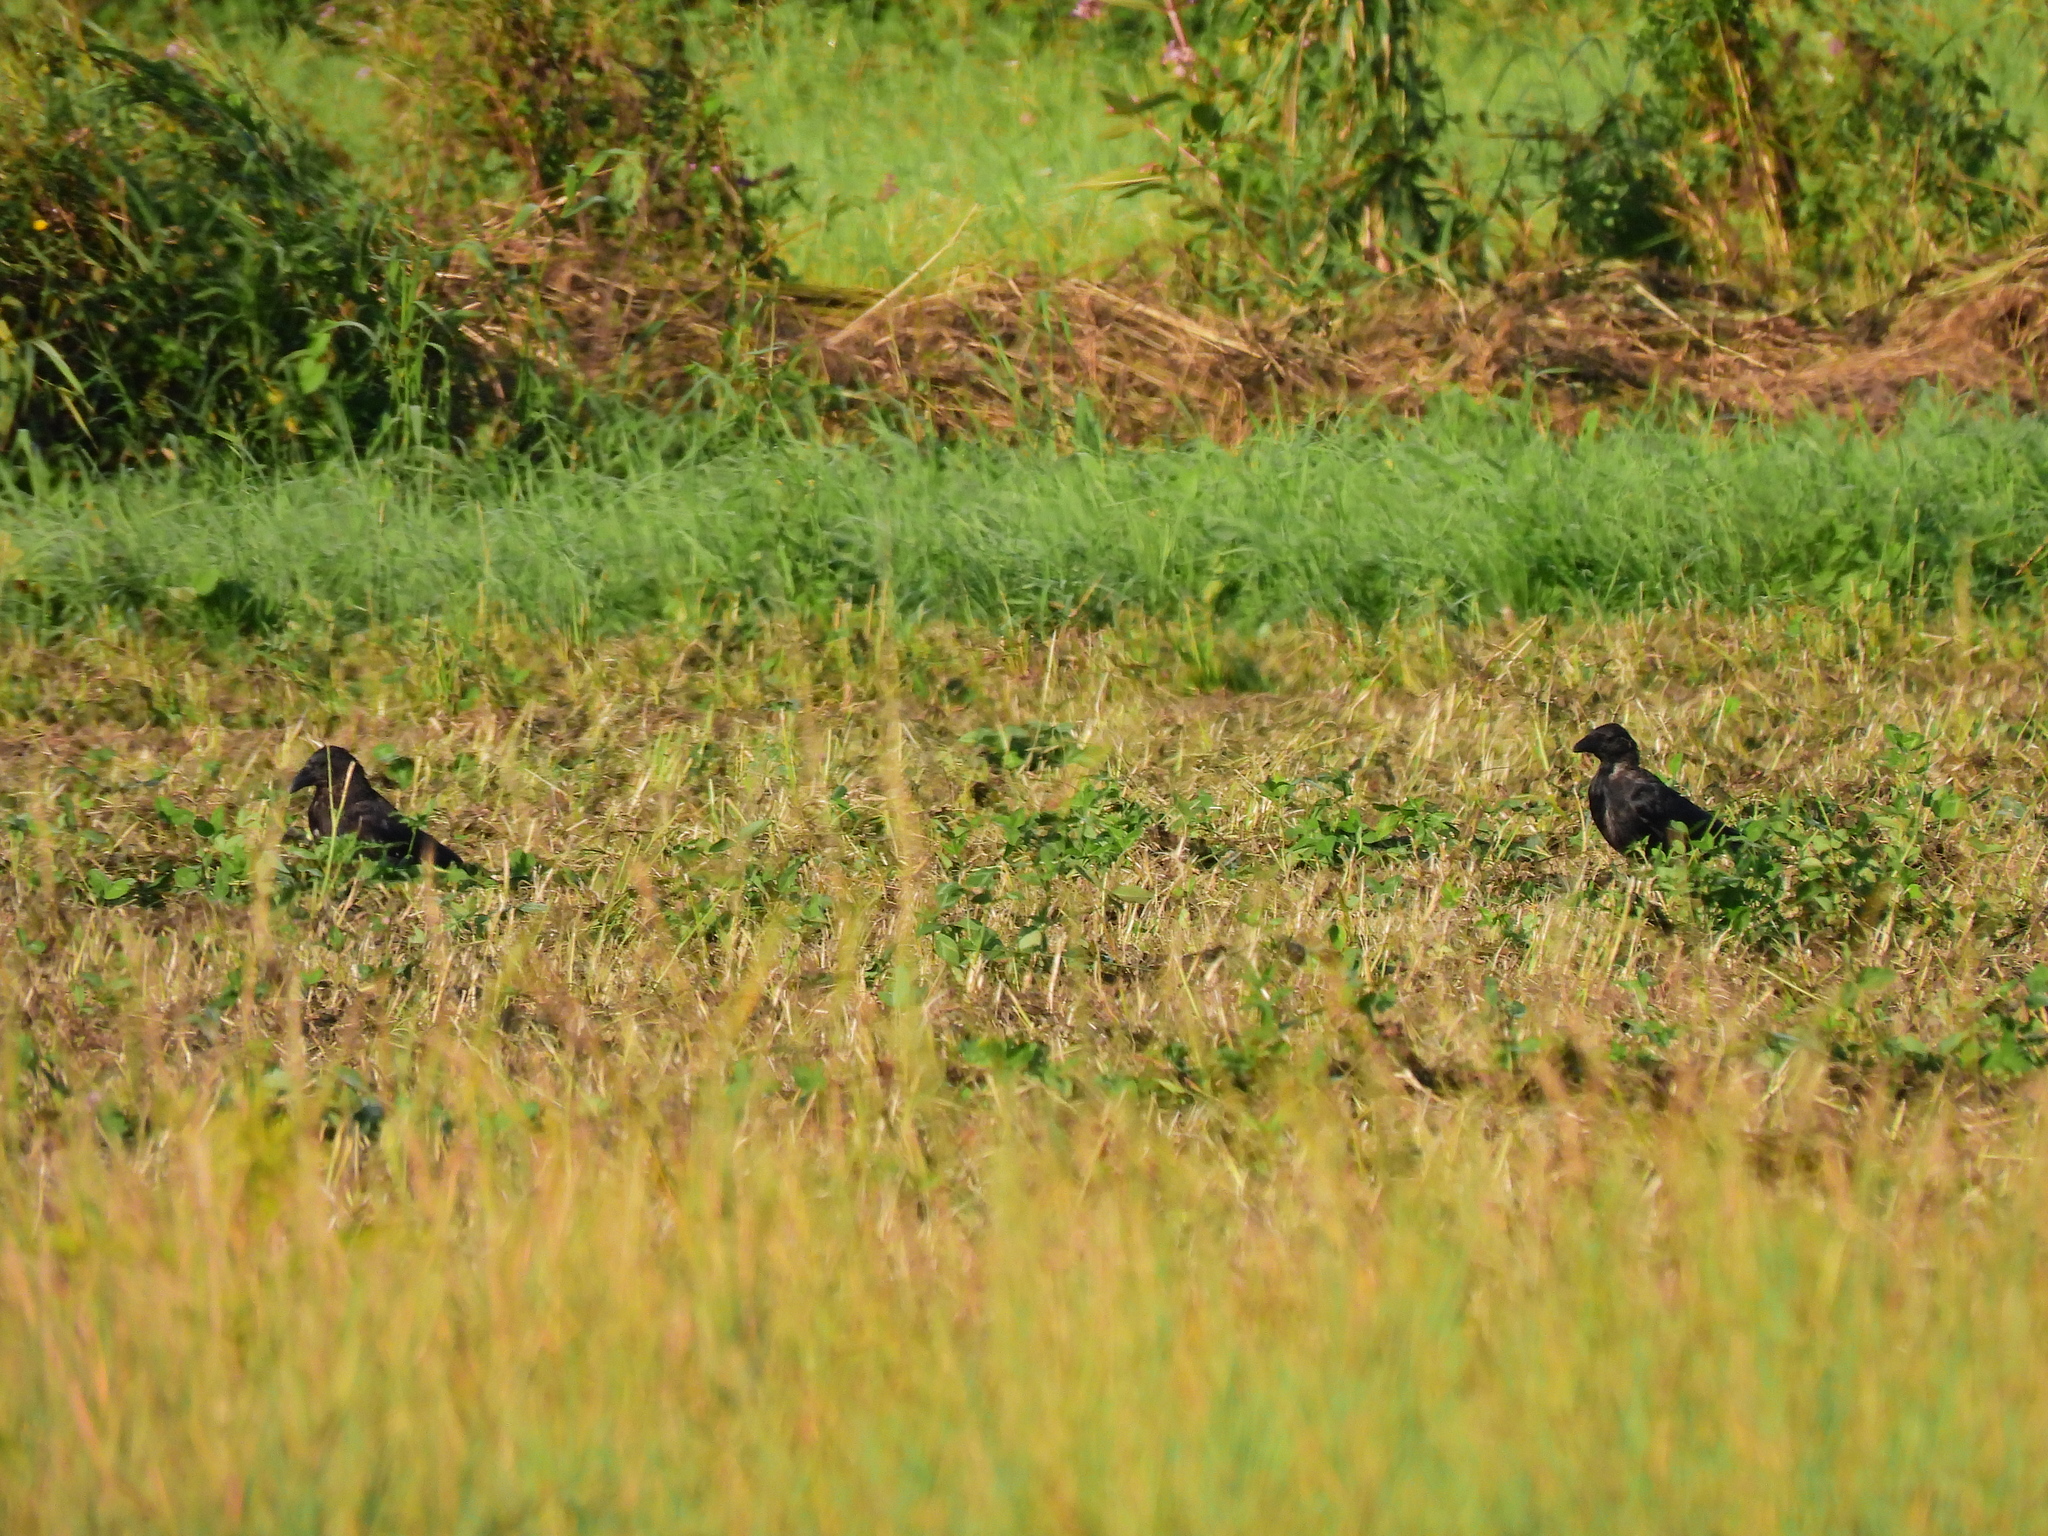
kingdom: Animalia
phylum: Chordata
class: Aves
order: Passeriformes
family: Corvidae
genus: Corvus
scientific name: Corvus corone
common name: Carrion crow
